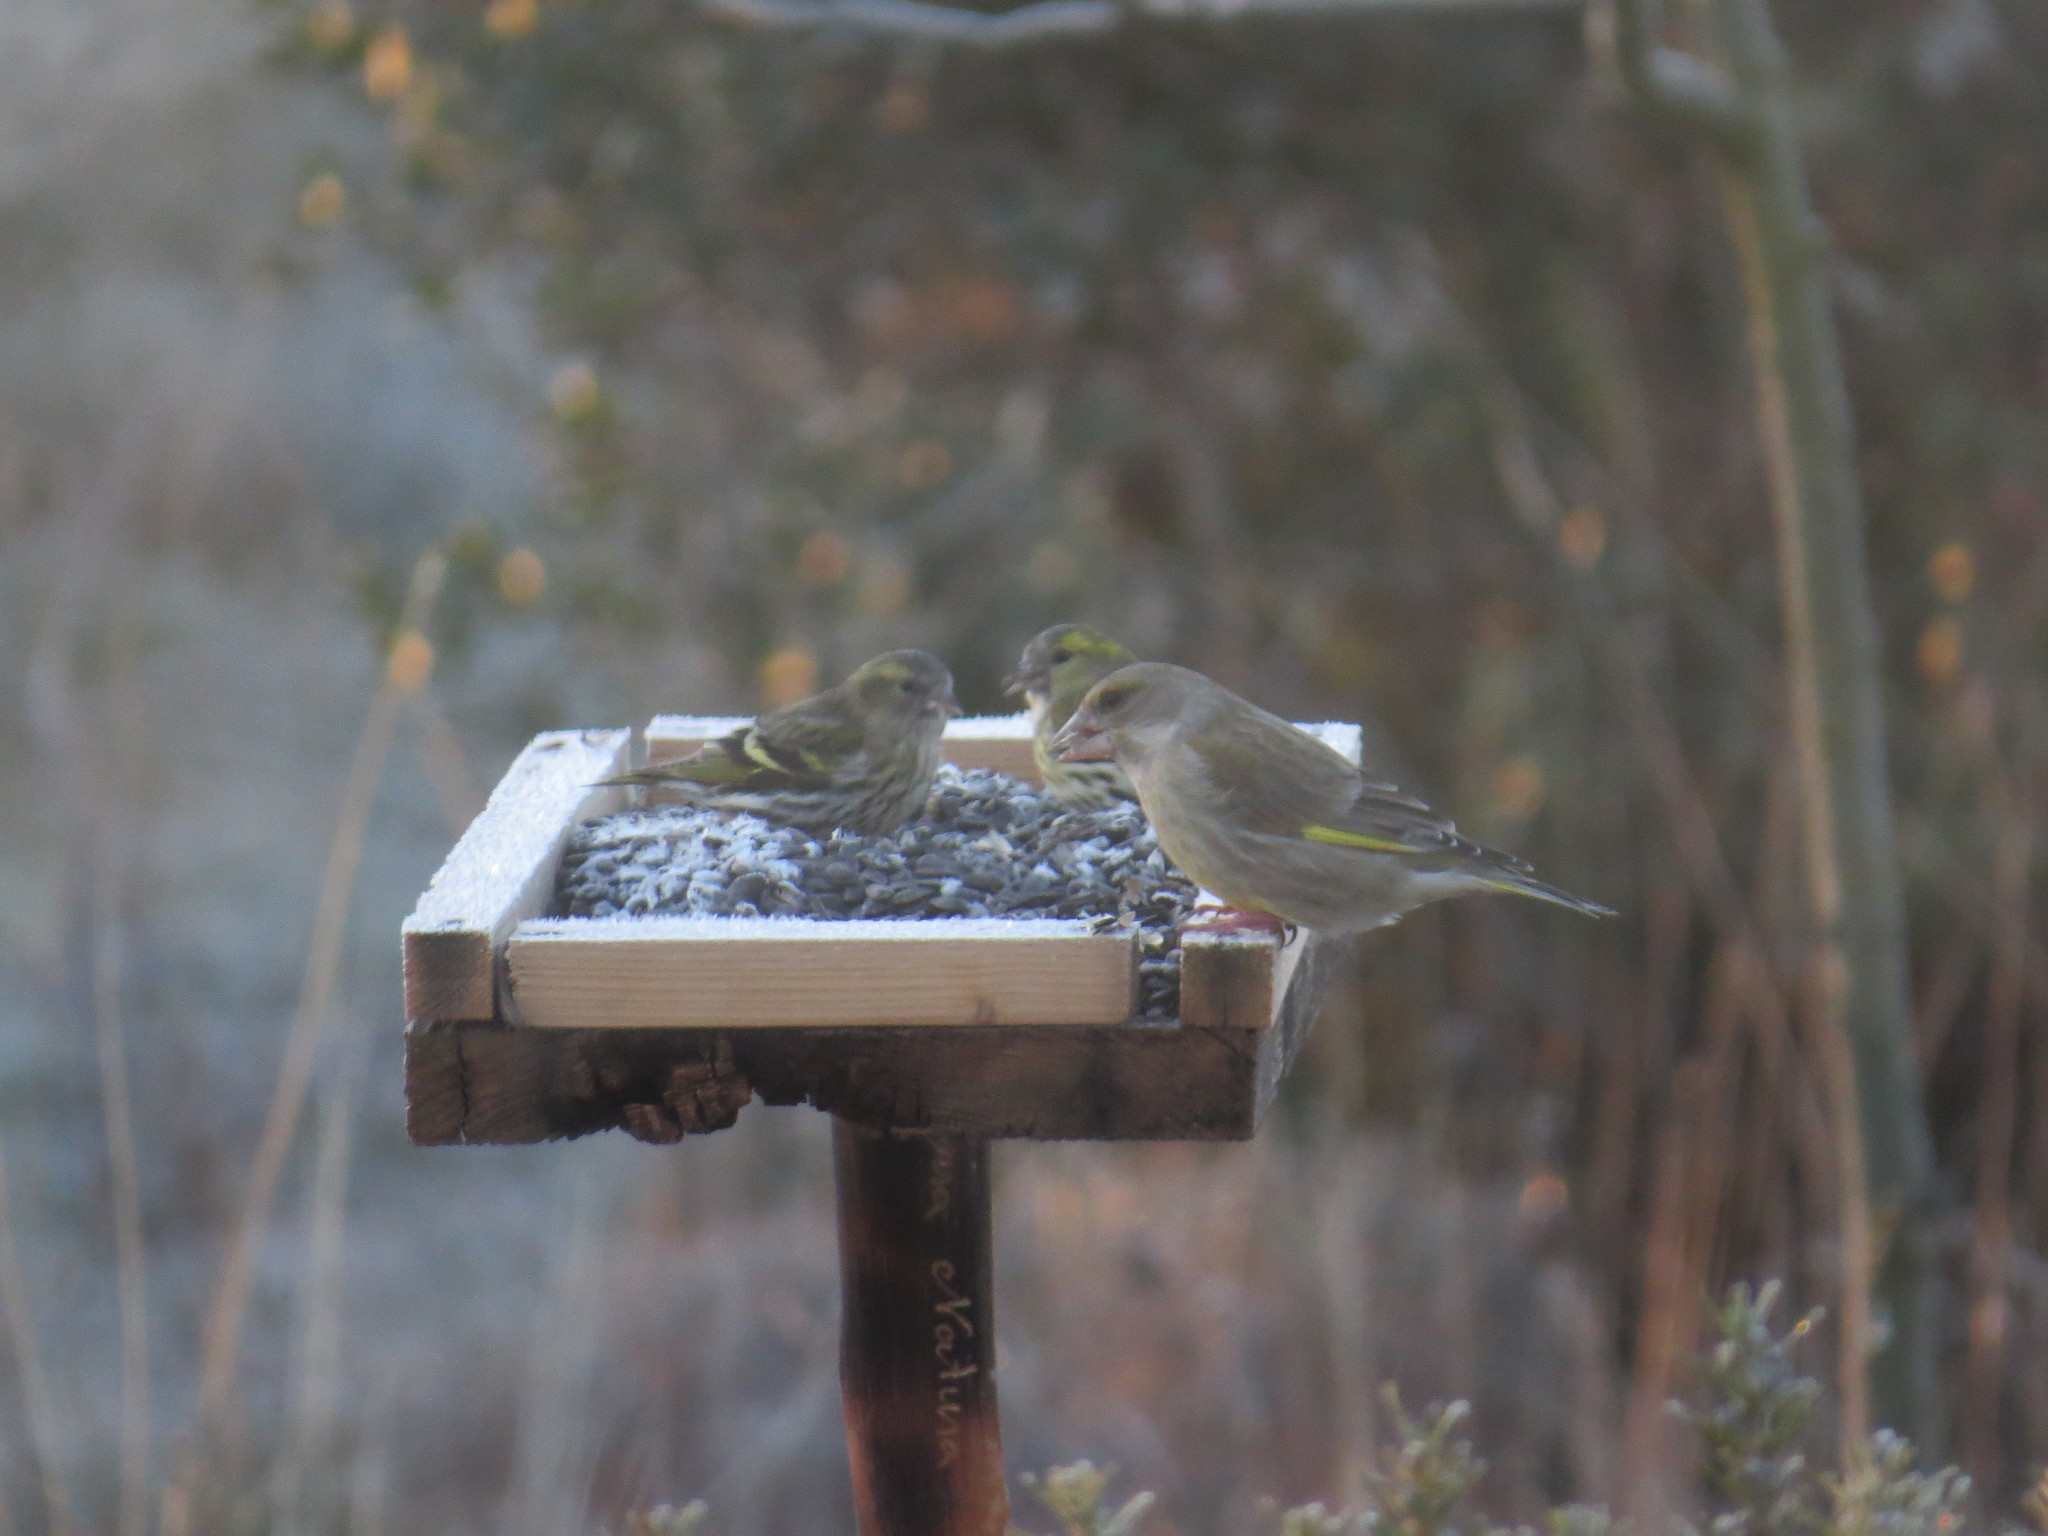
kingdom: Animalia
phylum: Chordata
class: Aves
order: Passeriformes
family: Fringillidae
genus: Spinus
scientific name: Spinus spinus
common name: Eurasian siskin
